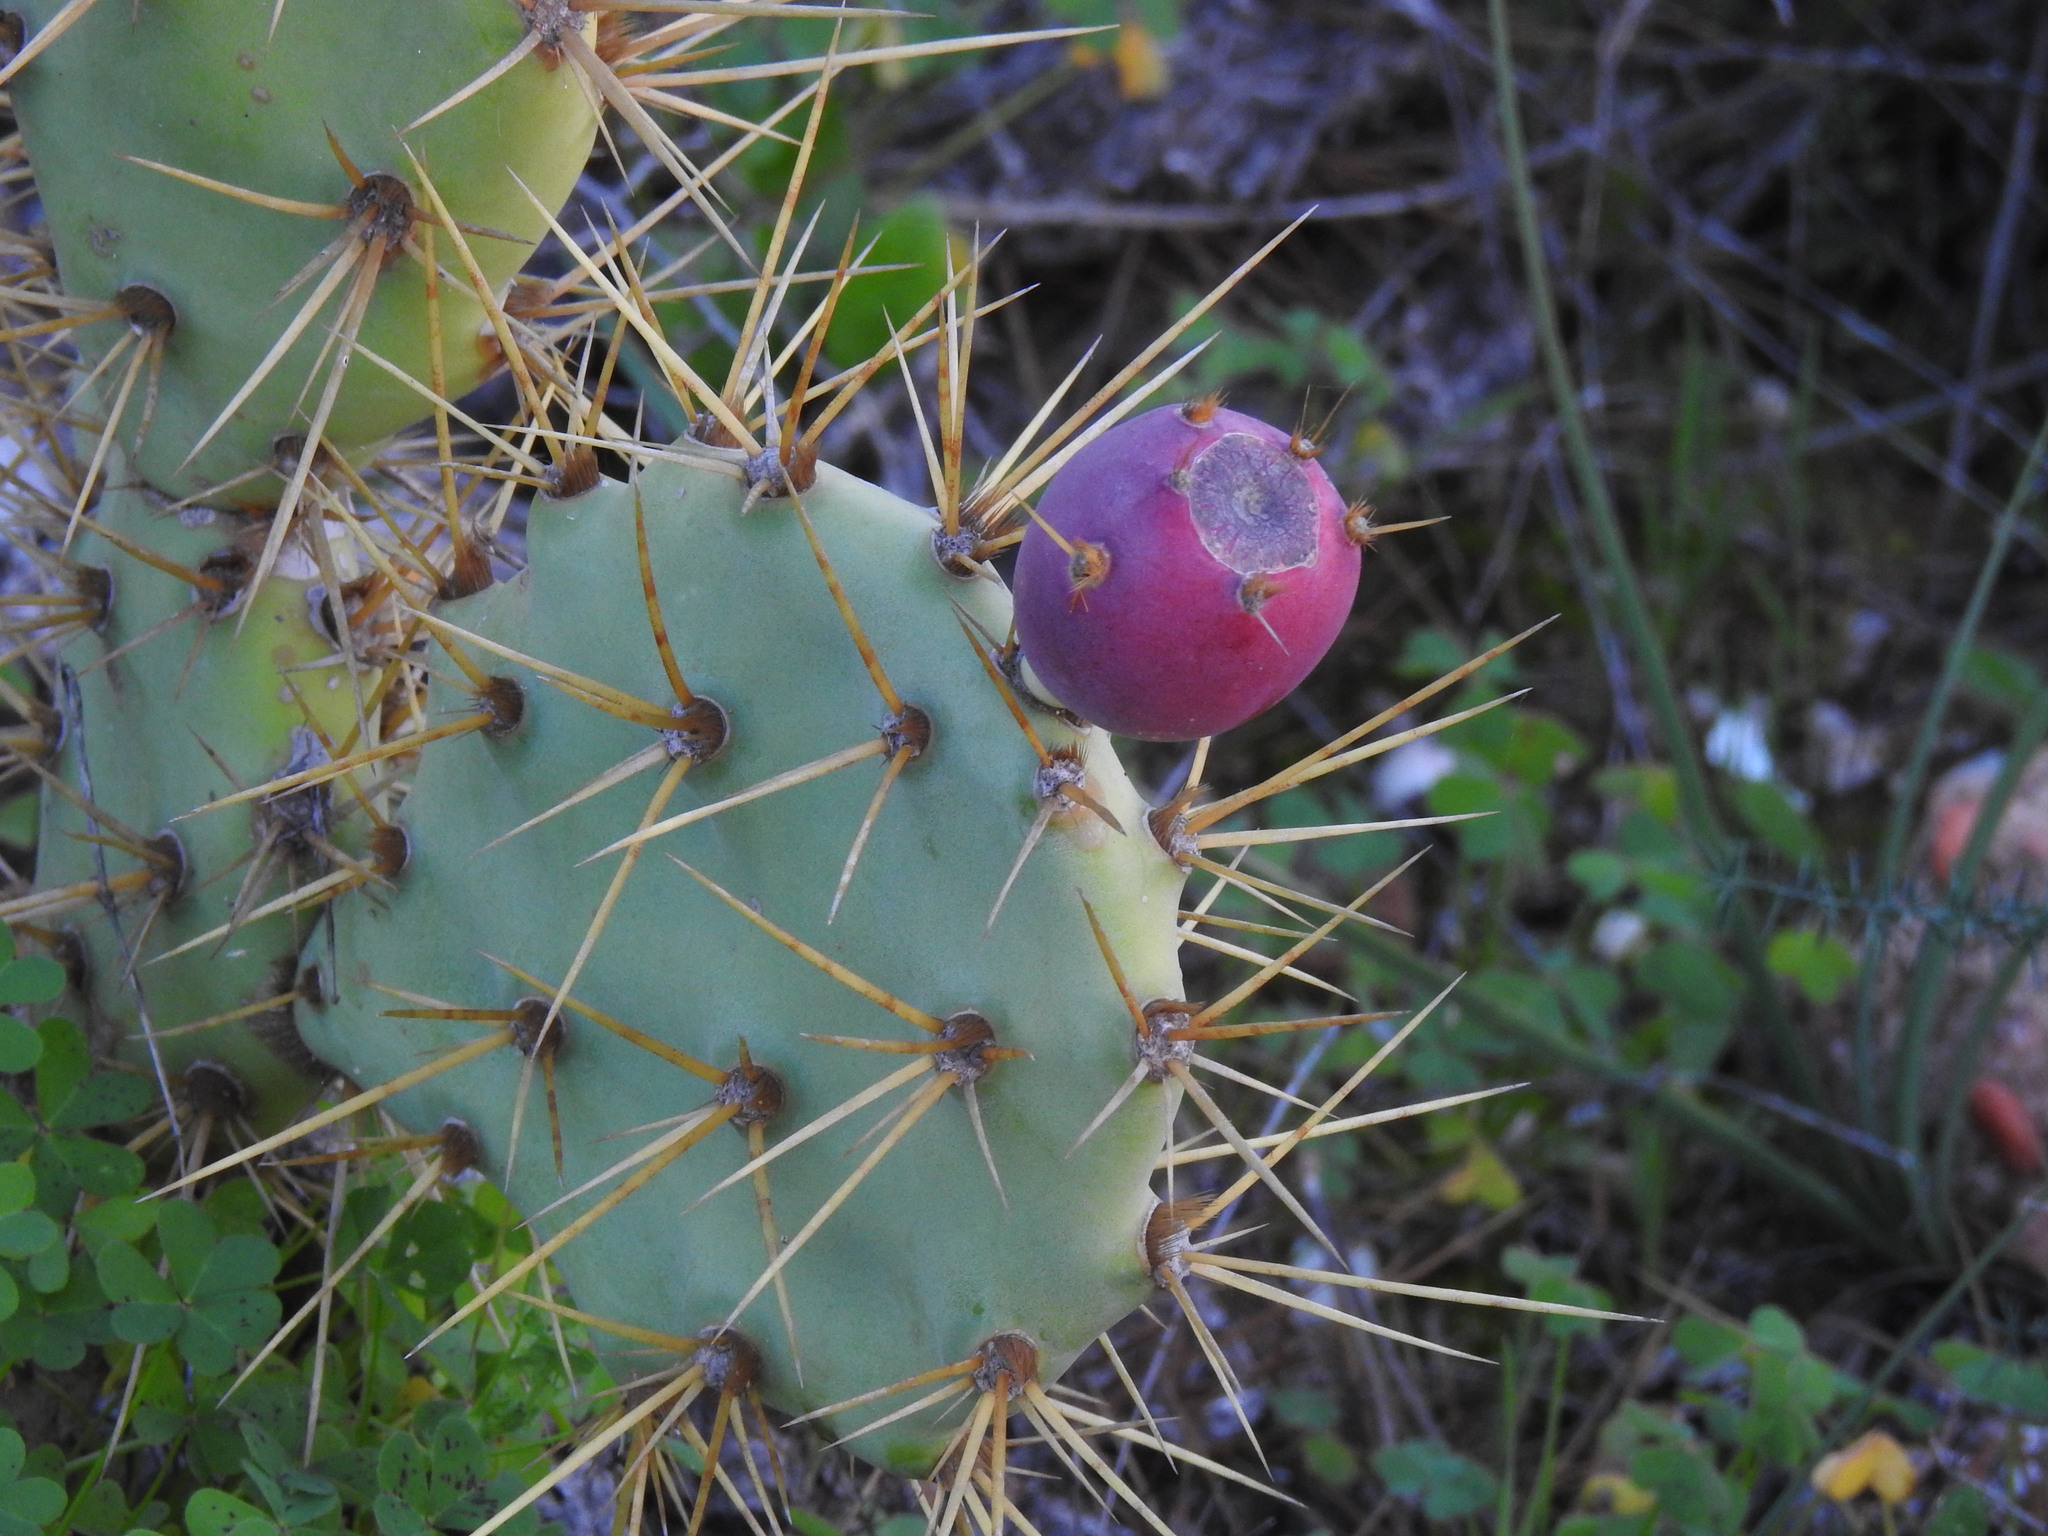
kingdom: Plantae
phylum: Tracheophyta
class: Magnoliopsida
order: Caryophyllales
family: Cactaceae
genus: Opuntia
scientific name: Opuntia stricta
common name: Erect pricklypear
